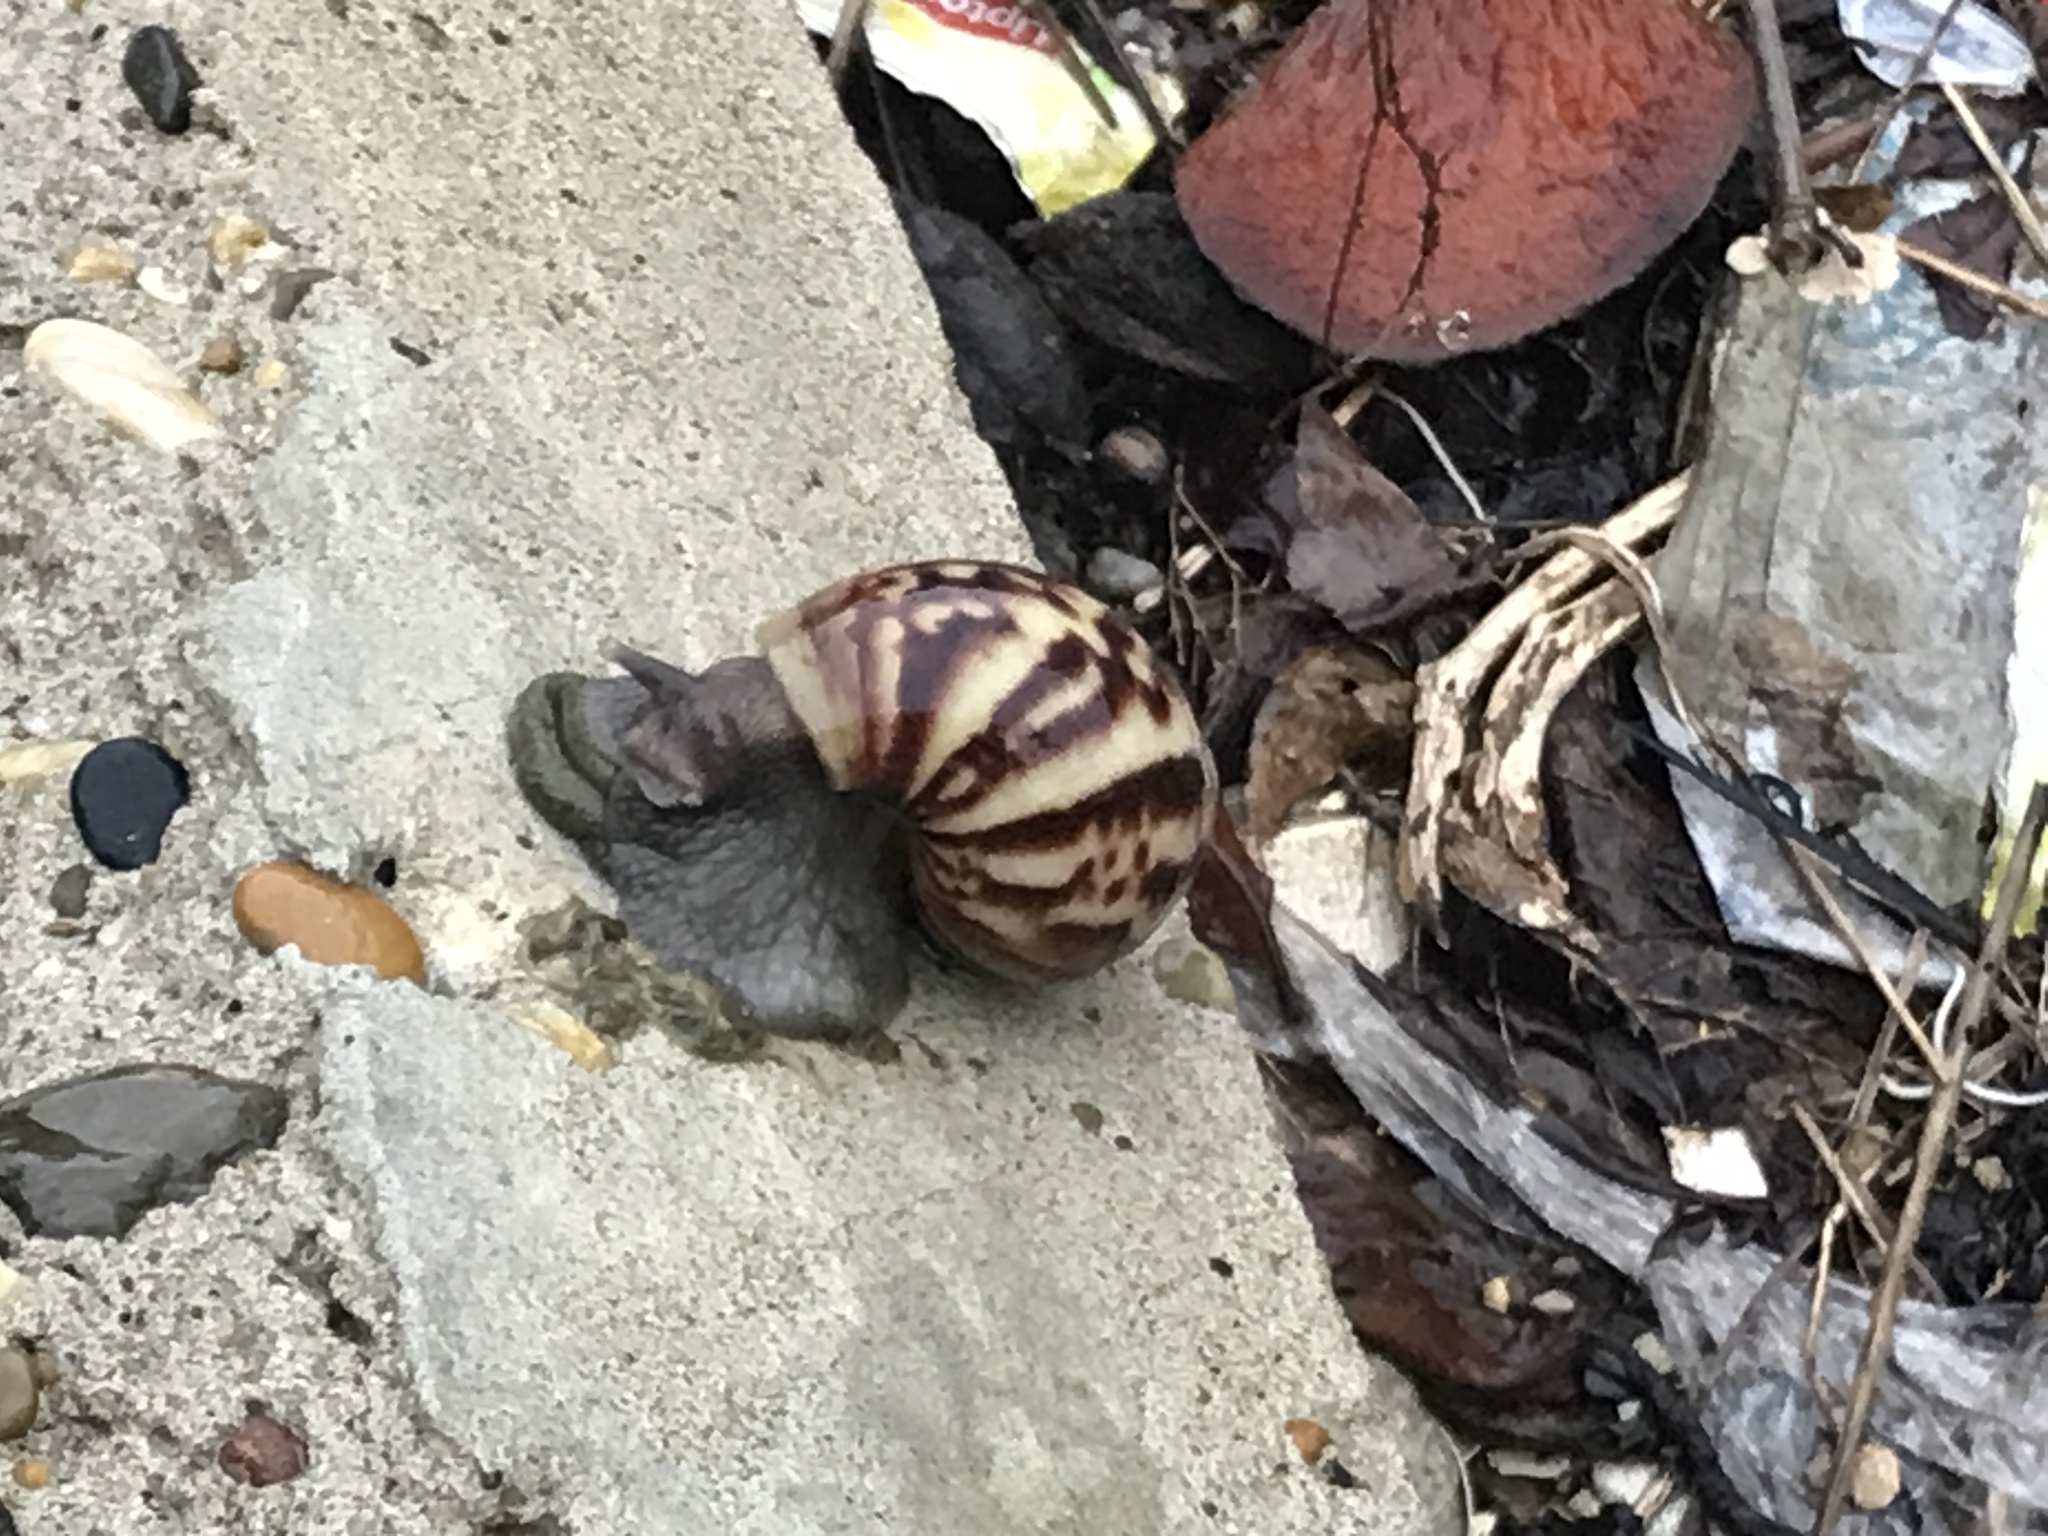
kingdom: Animalia
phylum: Mollusca
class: Gastropoda
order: Stylommatophora
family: Achatinidae
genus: Lissachatina
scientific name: Lissachatina fulica
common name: Giant african snail
